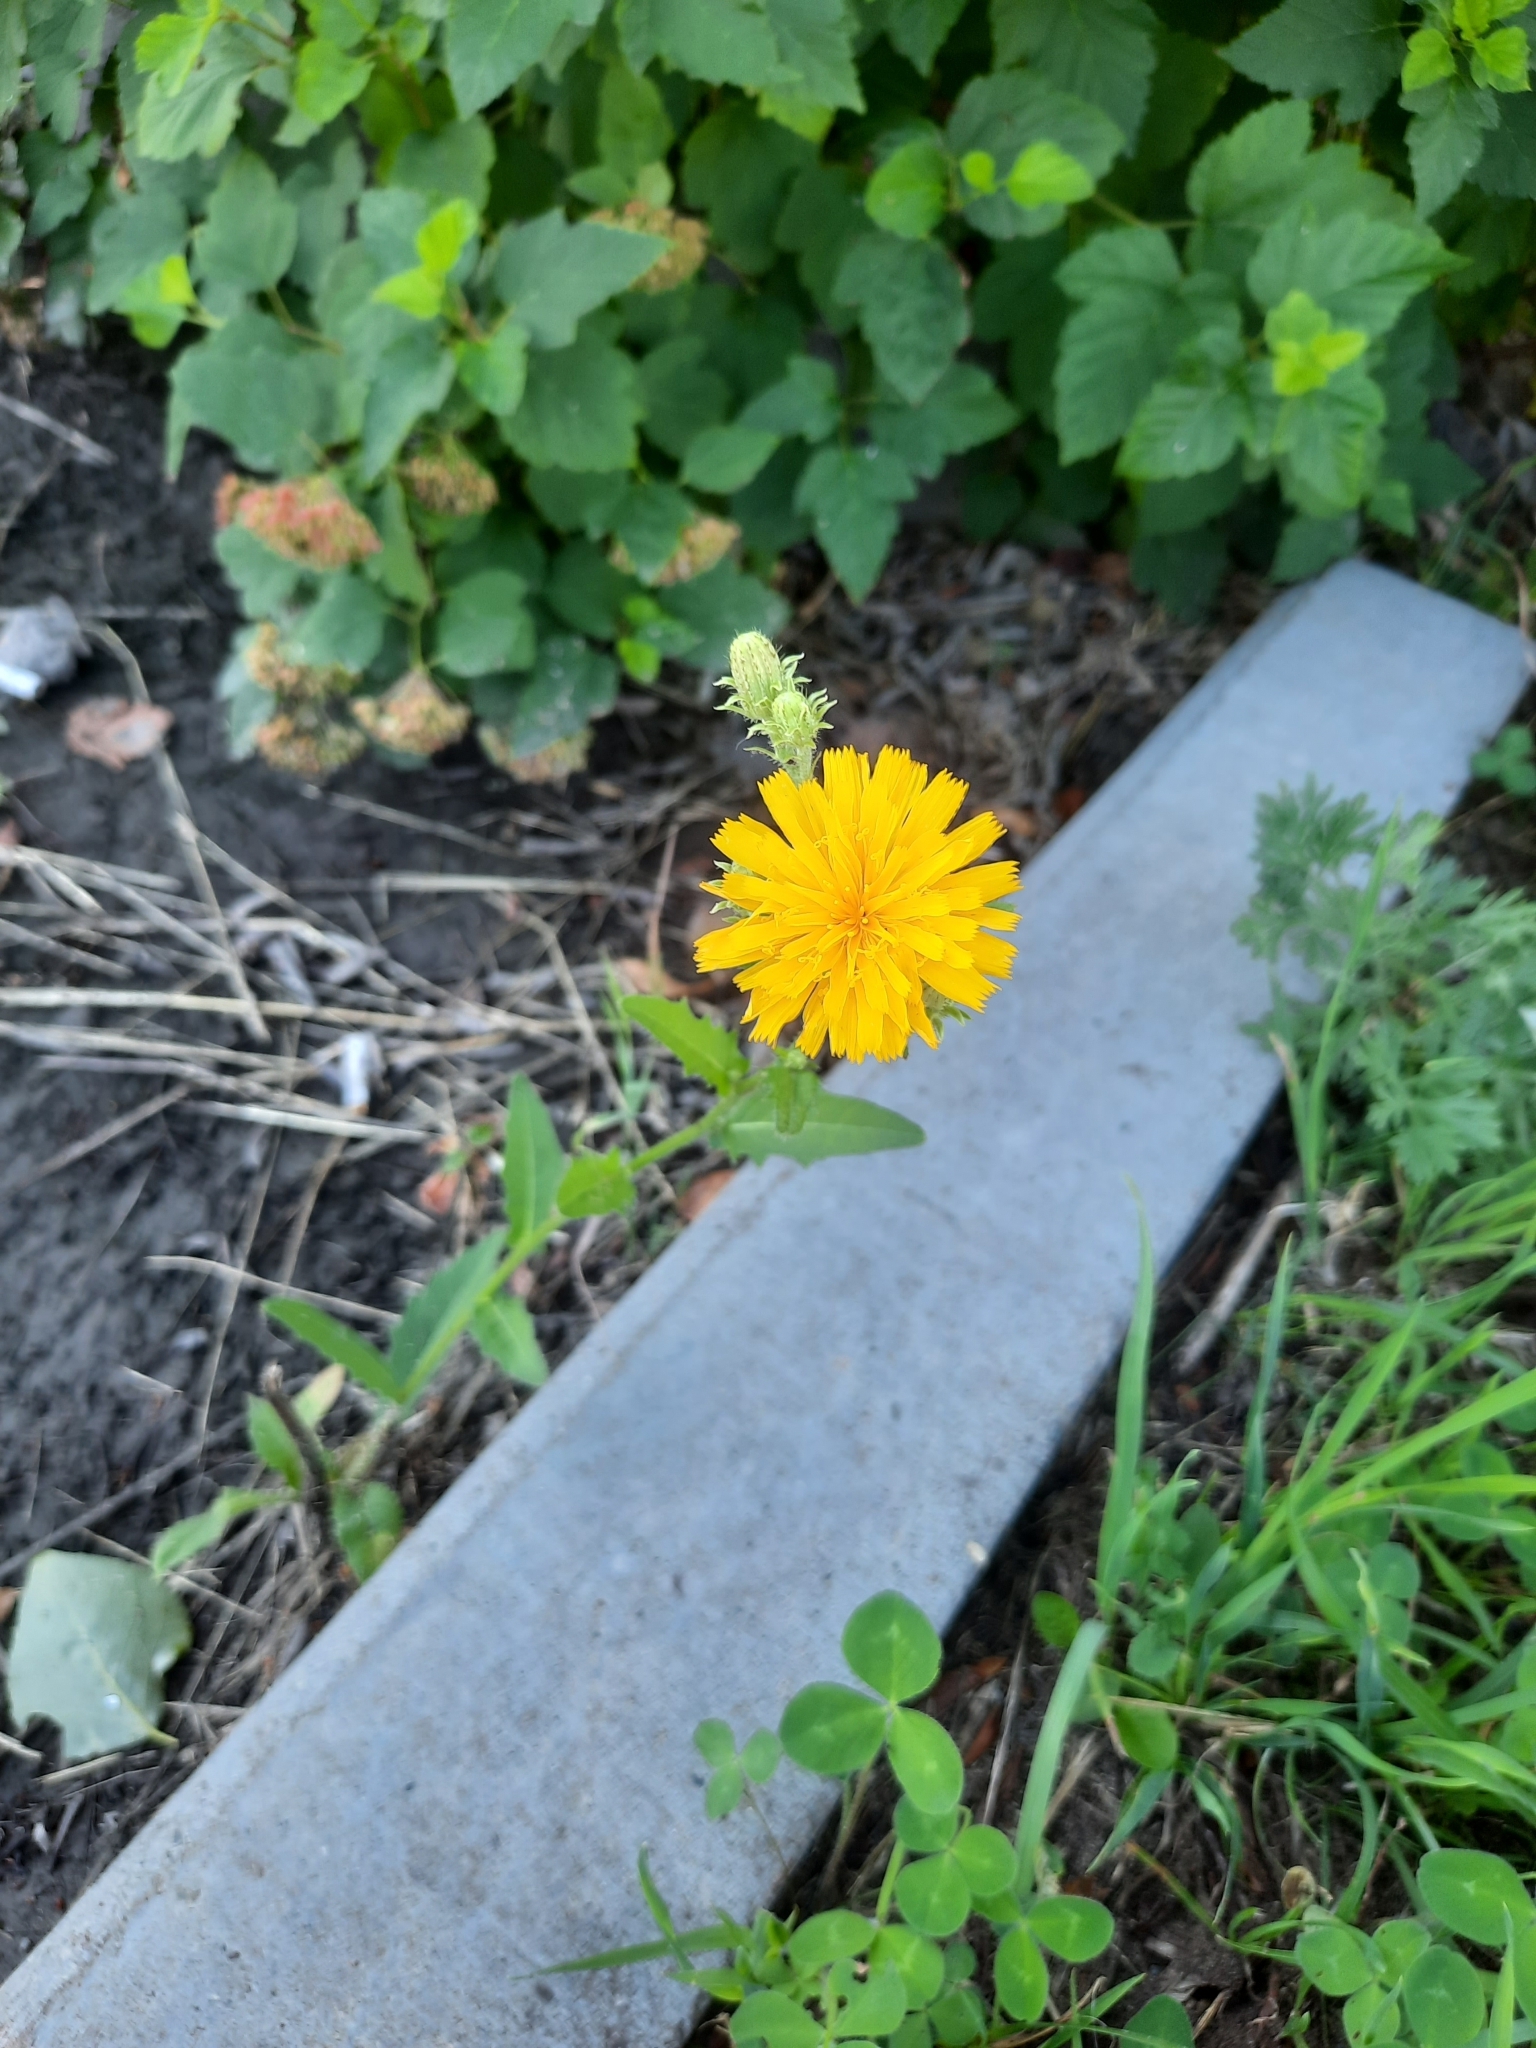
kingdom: Plantae
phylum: Tracheophyta
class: Magnoliopsida
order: Asterales
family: Asteraceae
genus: Picris
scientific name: Picris hieracioides
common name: Hawkweed oxtongue
